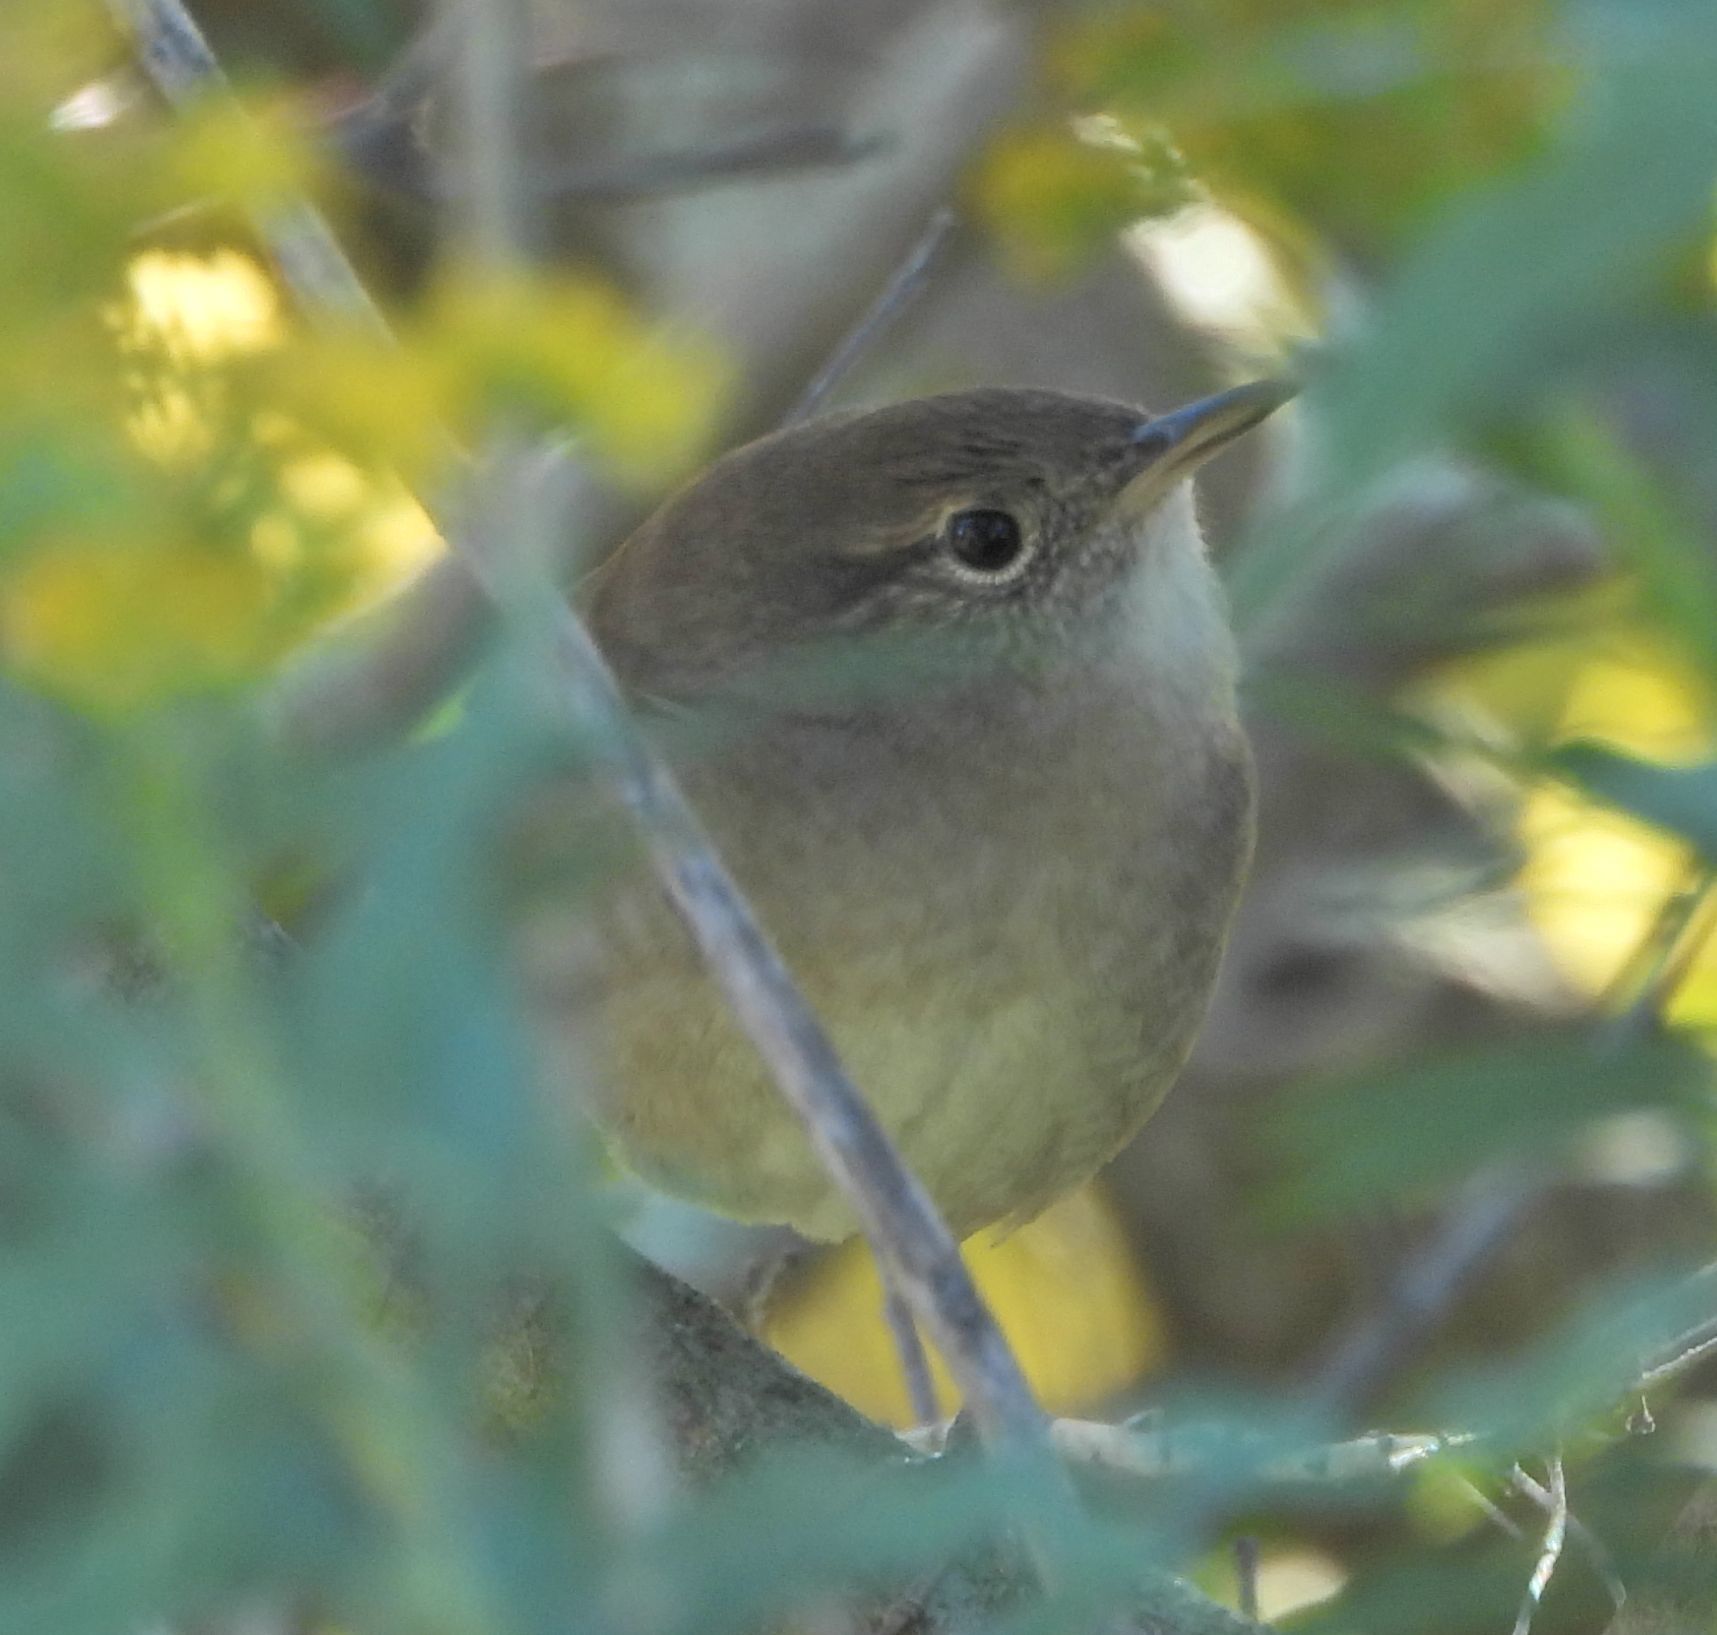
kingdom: Animalia
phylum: Chordata
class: Aves
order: Passeriformes
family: Troglodytidae
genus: Troglodytes
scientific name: Troglodytes aedon
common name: House wren
